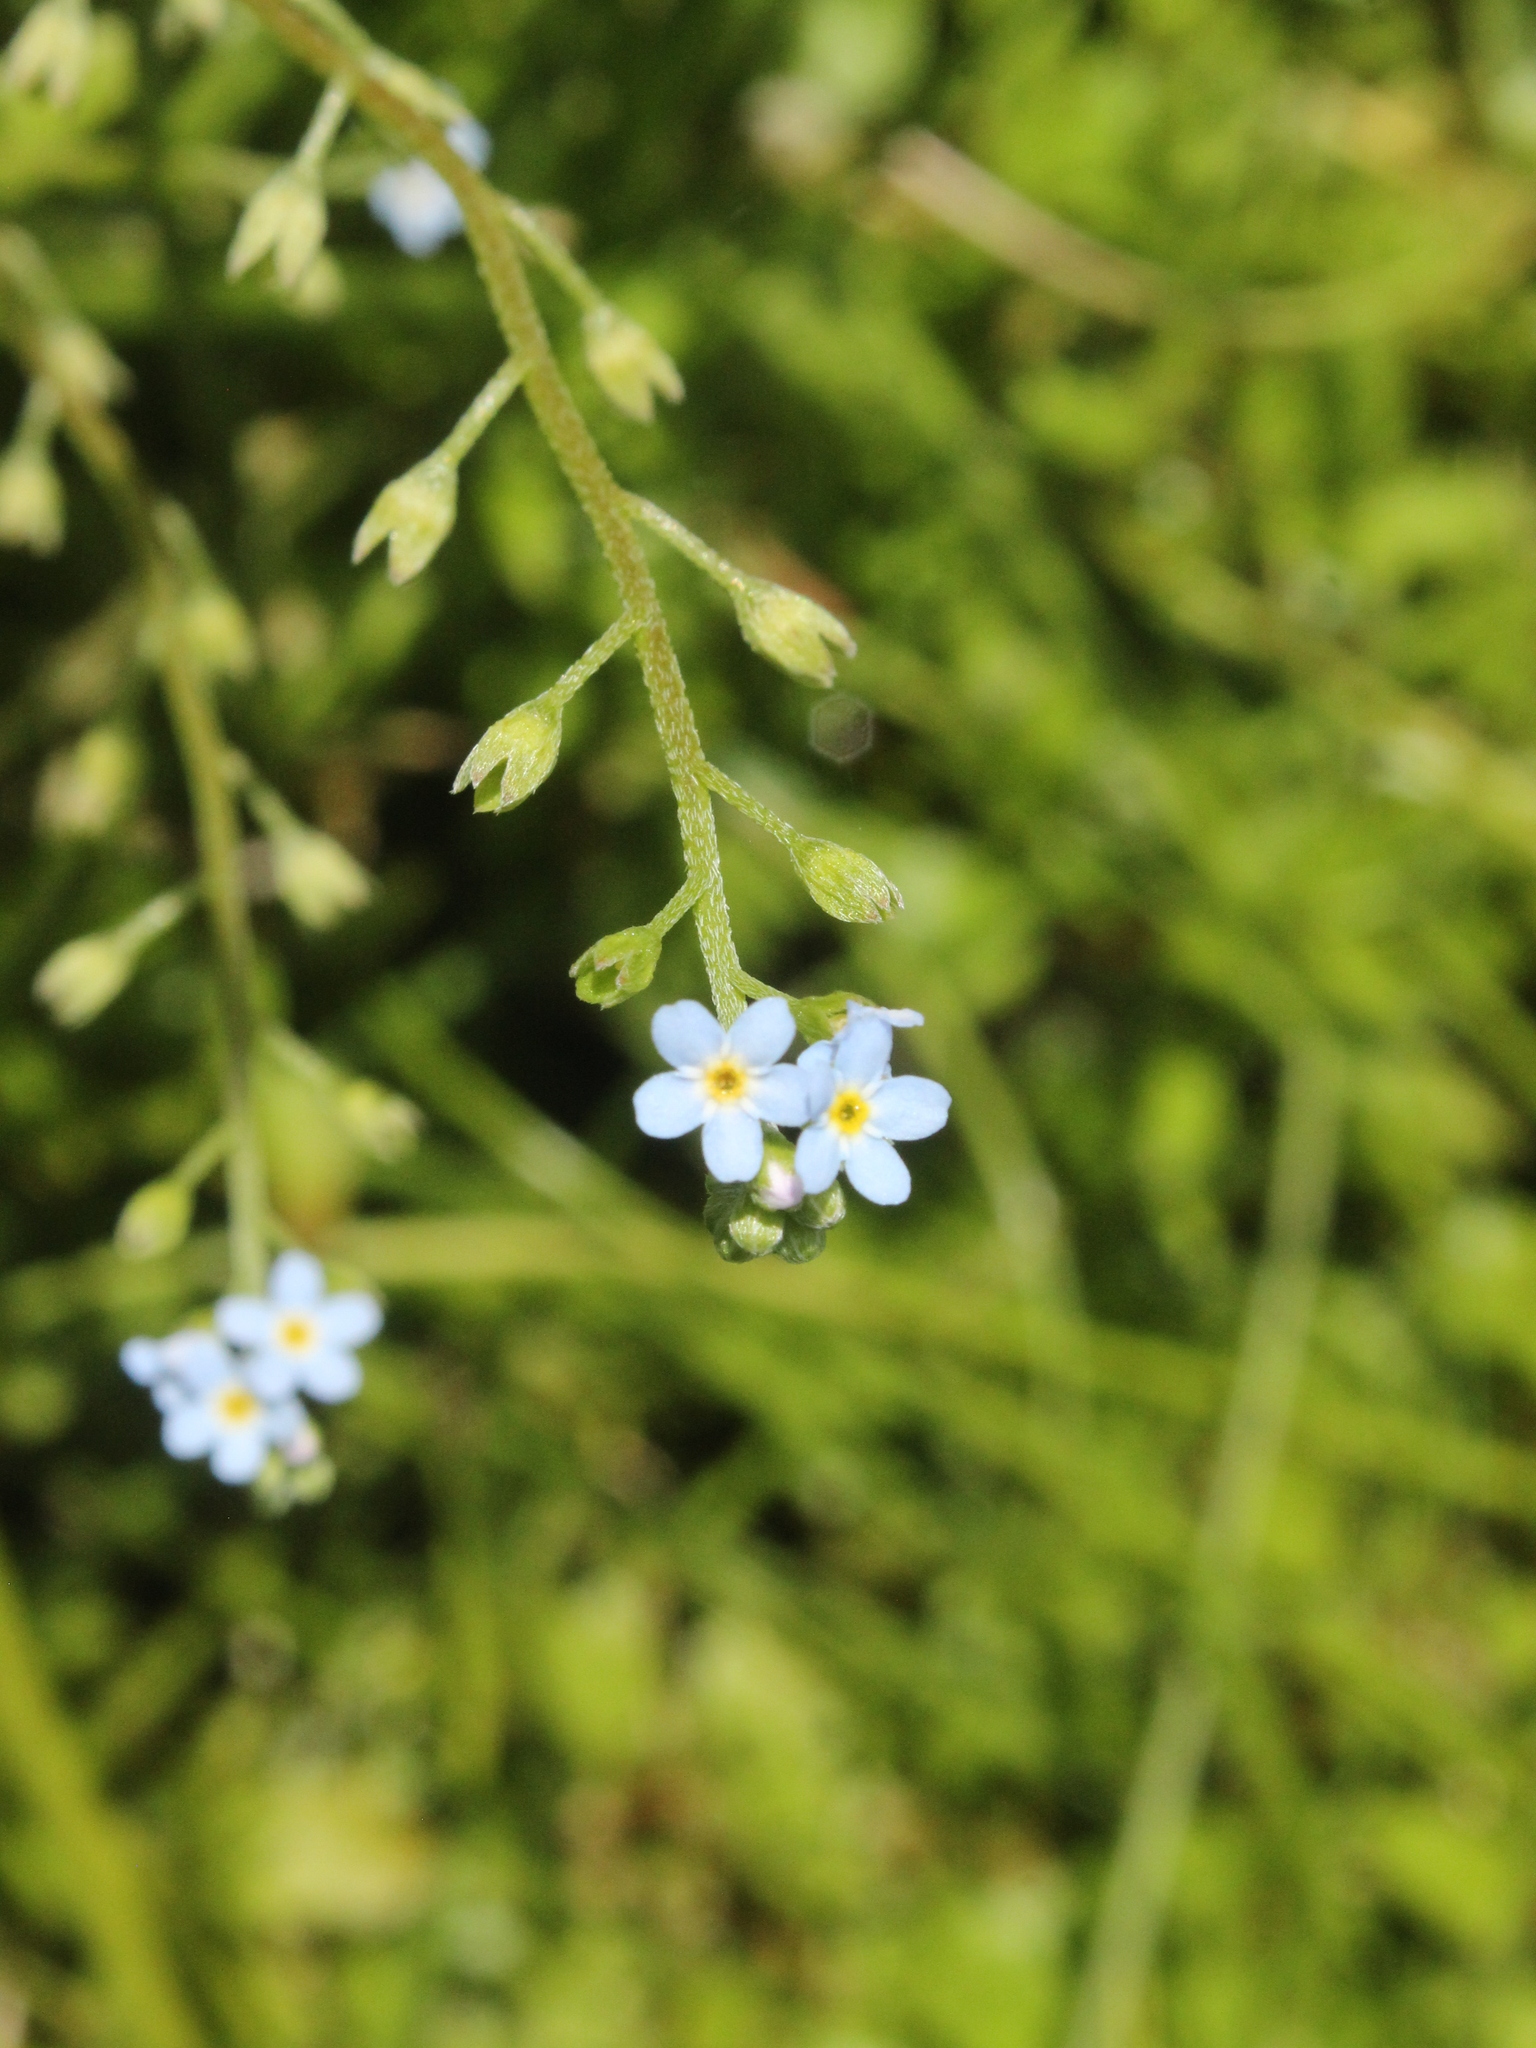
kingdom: Plantae
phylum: Tracheophyta
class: Magnoliopsida
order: Boraginales
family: Boraginaceae
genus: Myosotis
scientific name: Myosotis laxa
